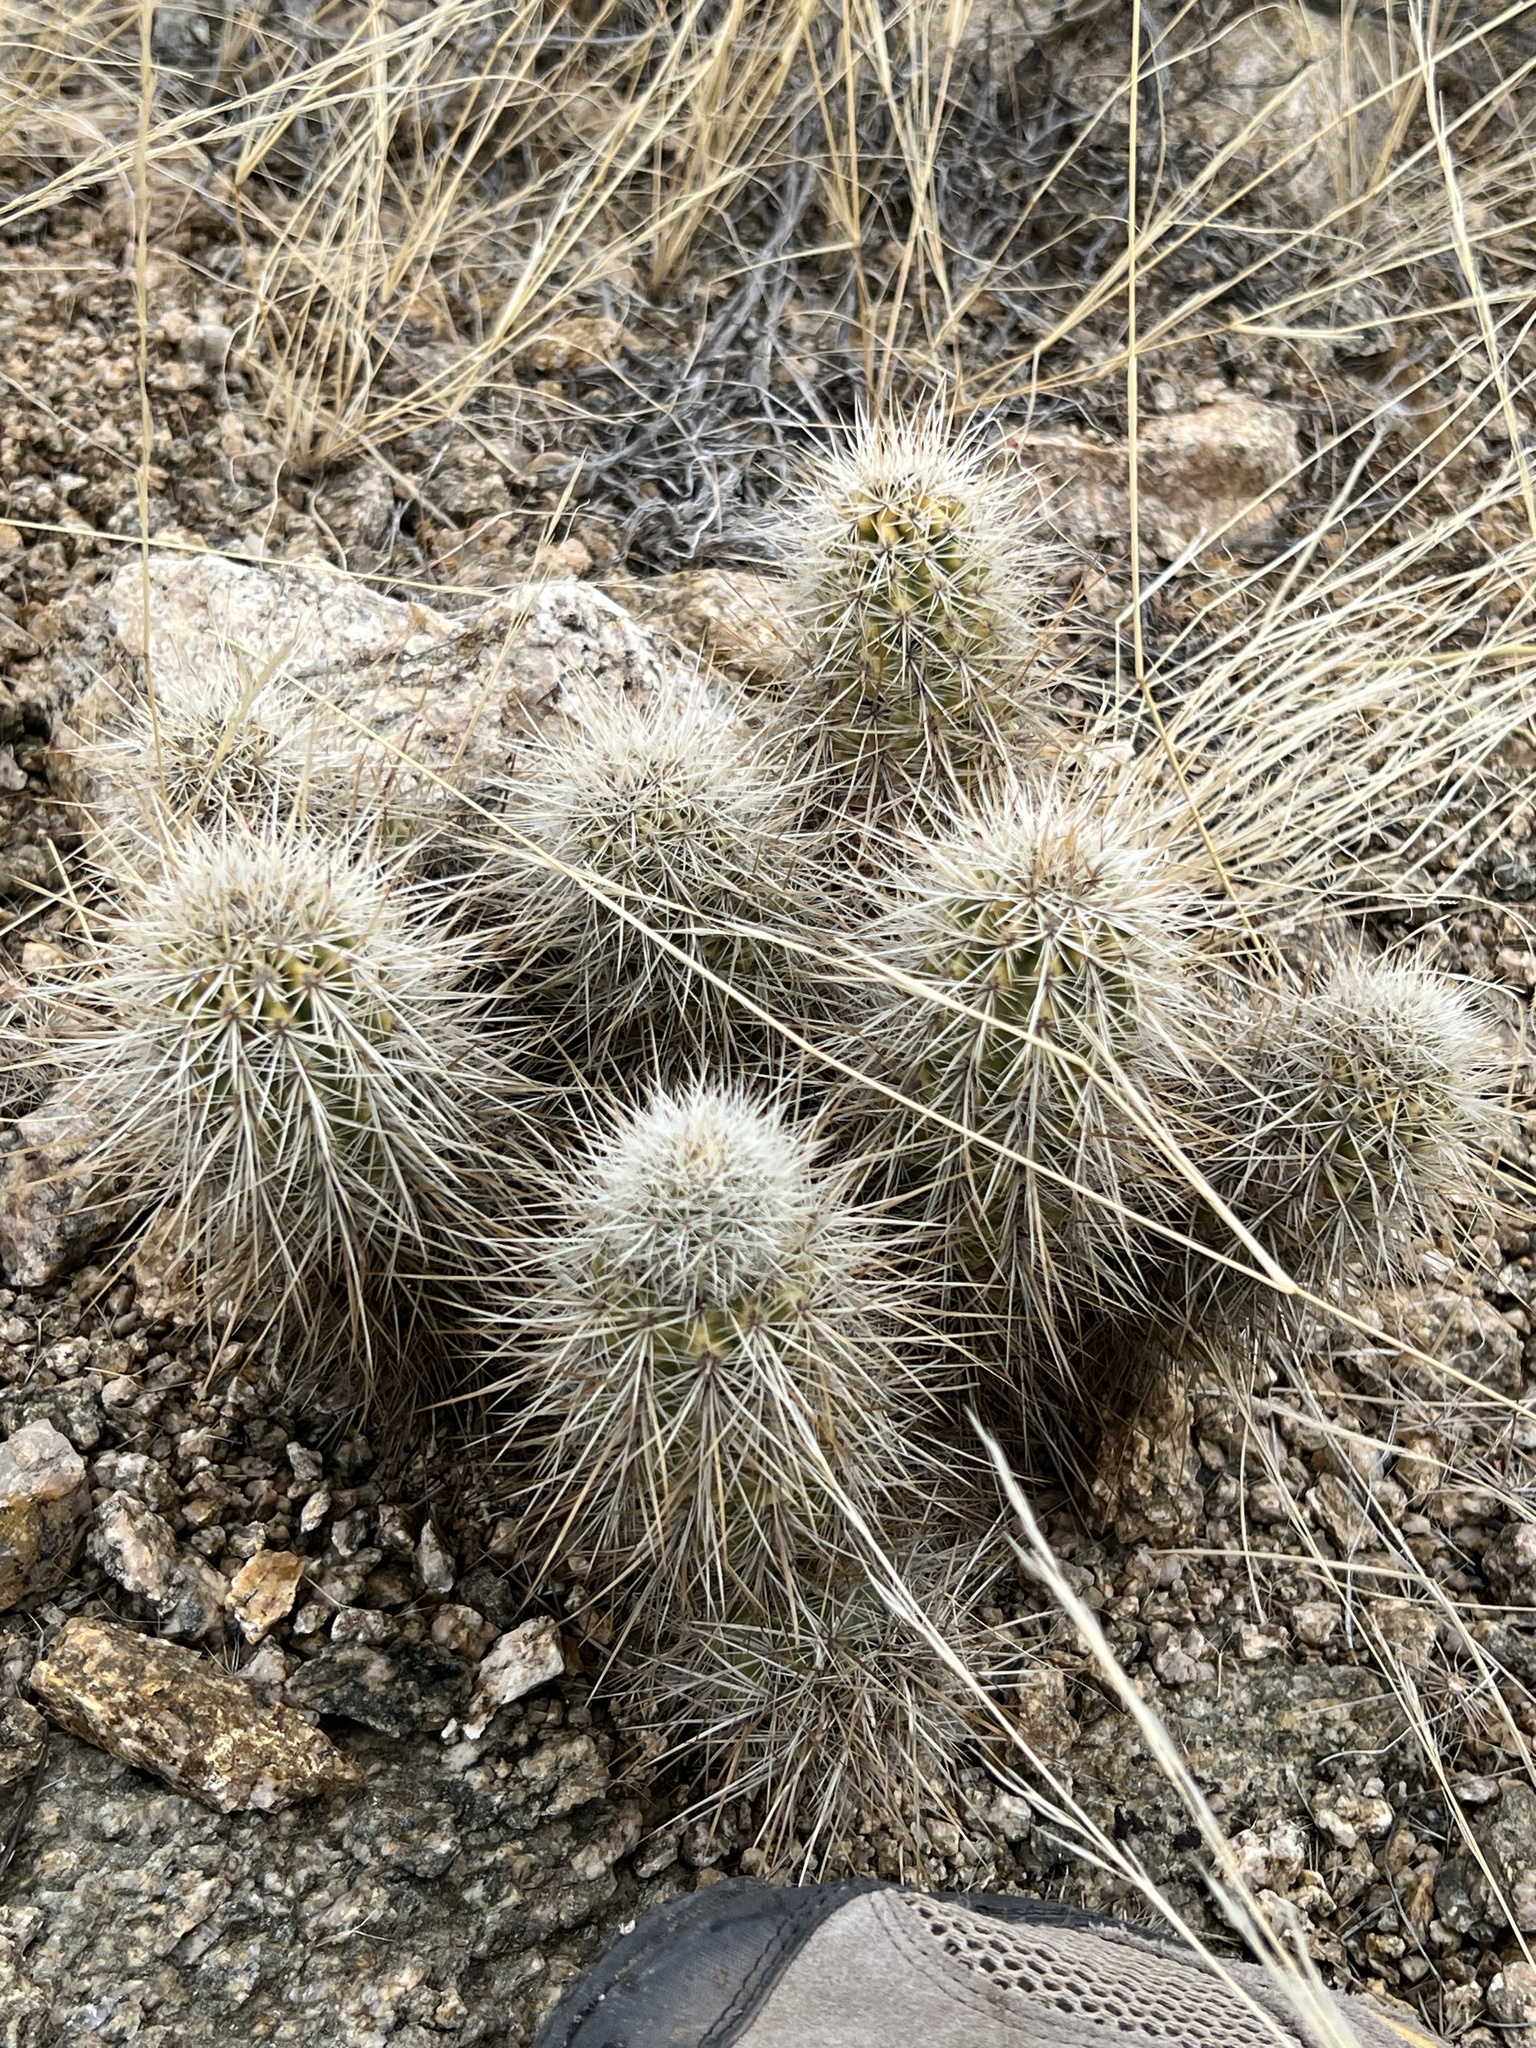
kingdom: Plantae
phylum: Tracheophyta
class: Magnoliopsida
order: Caryophyllales
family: Cactaceae
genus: Echinocereus
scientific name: Echinocereus engelmannii
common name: Engelmann's hedgehog cactus
